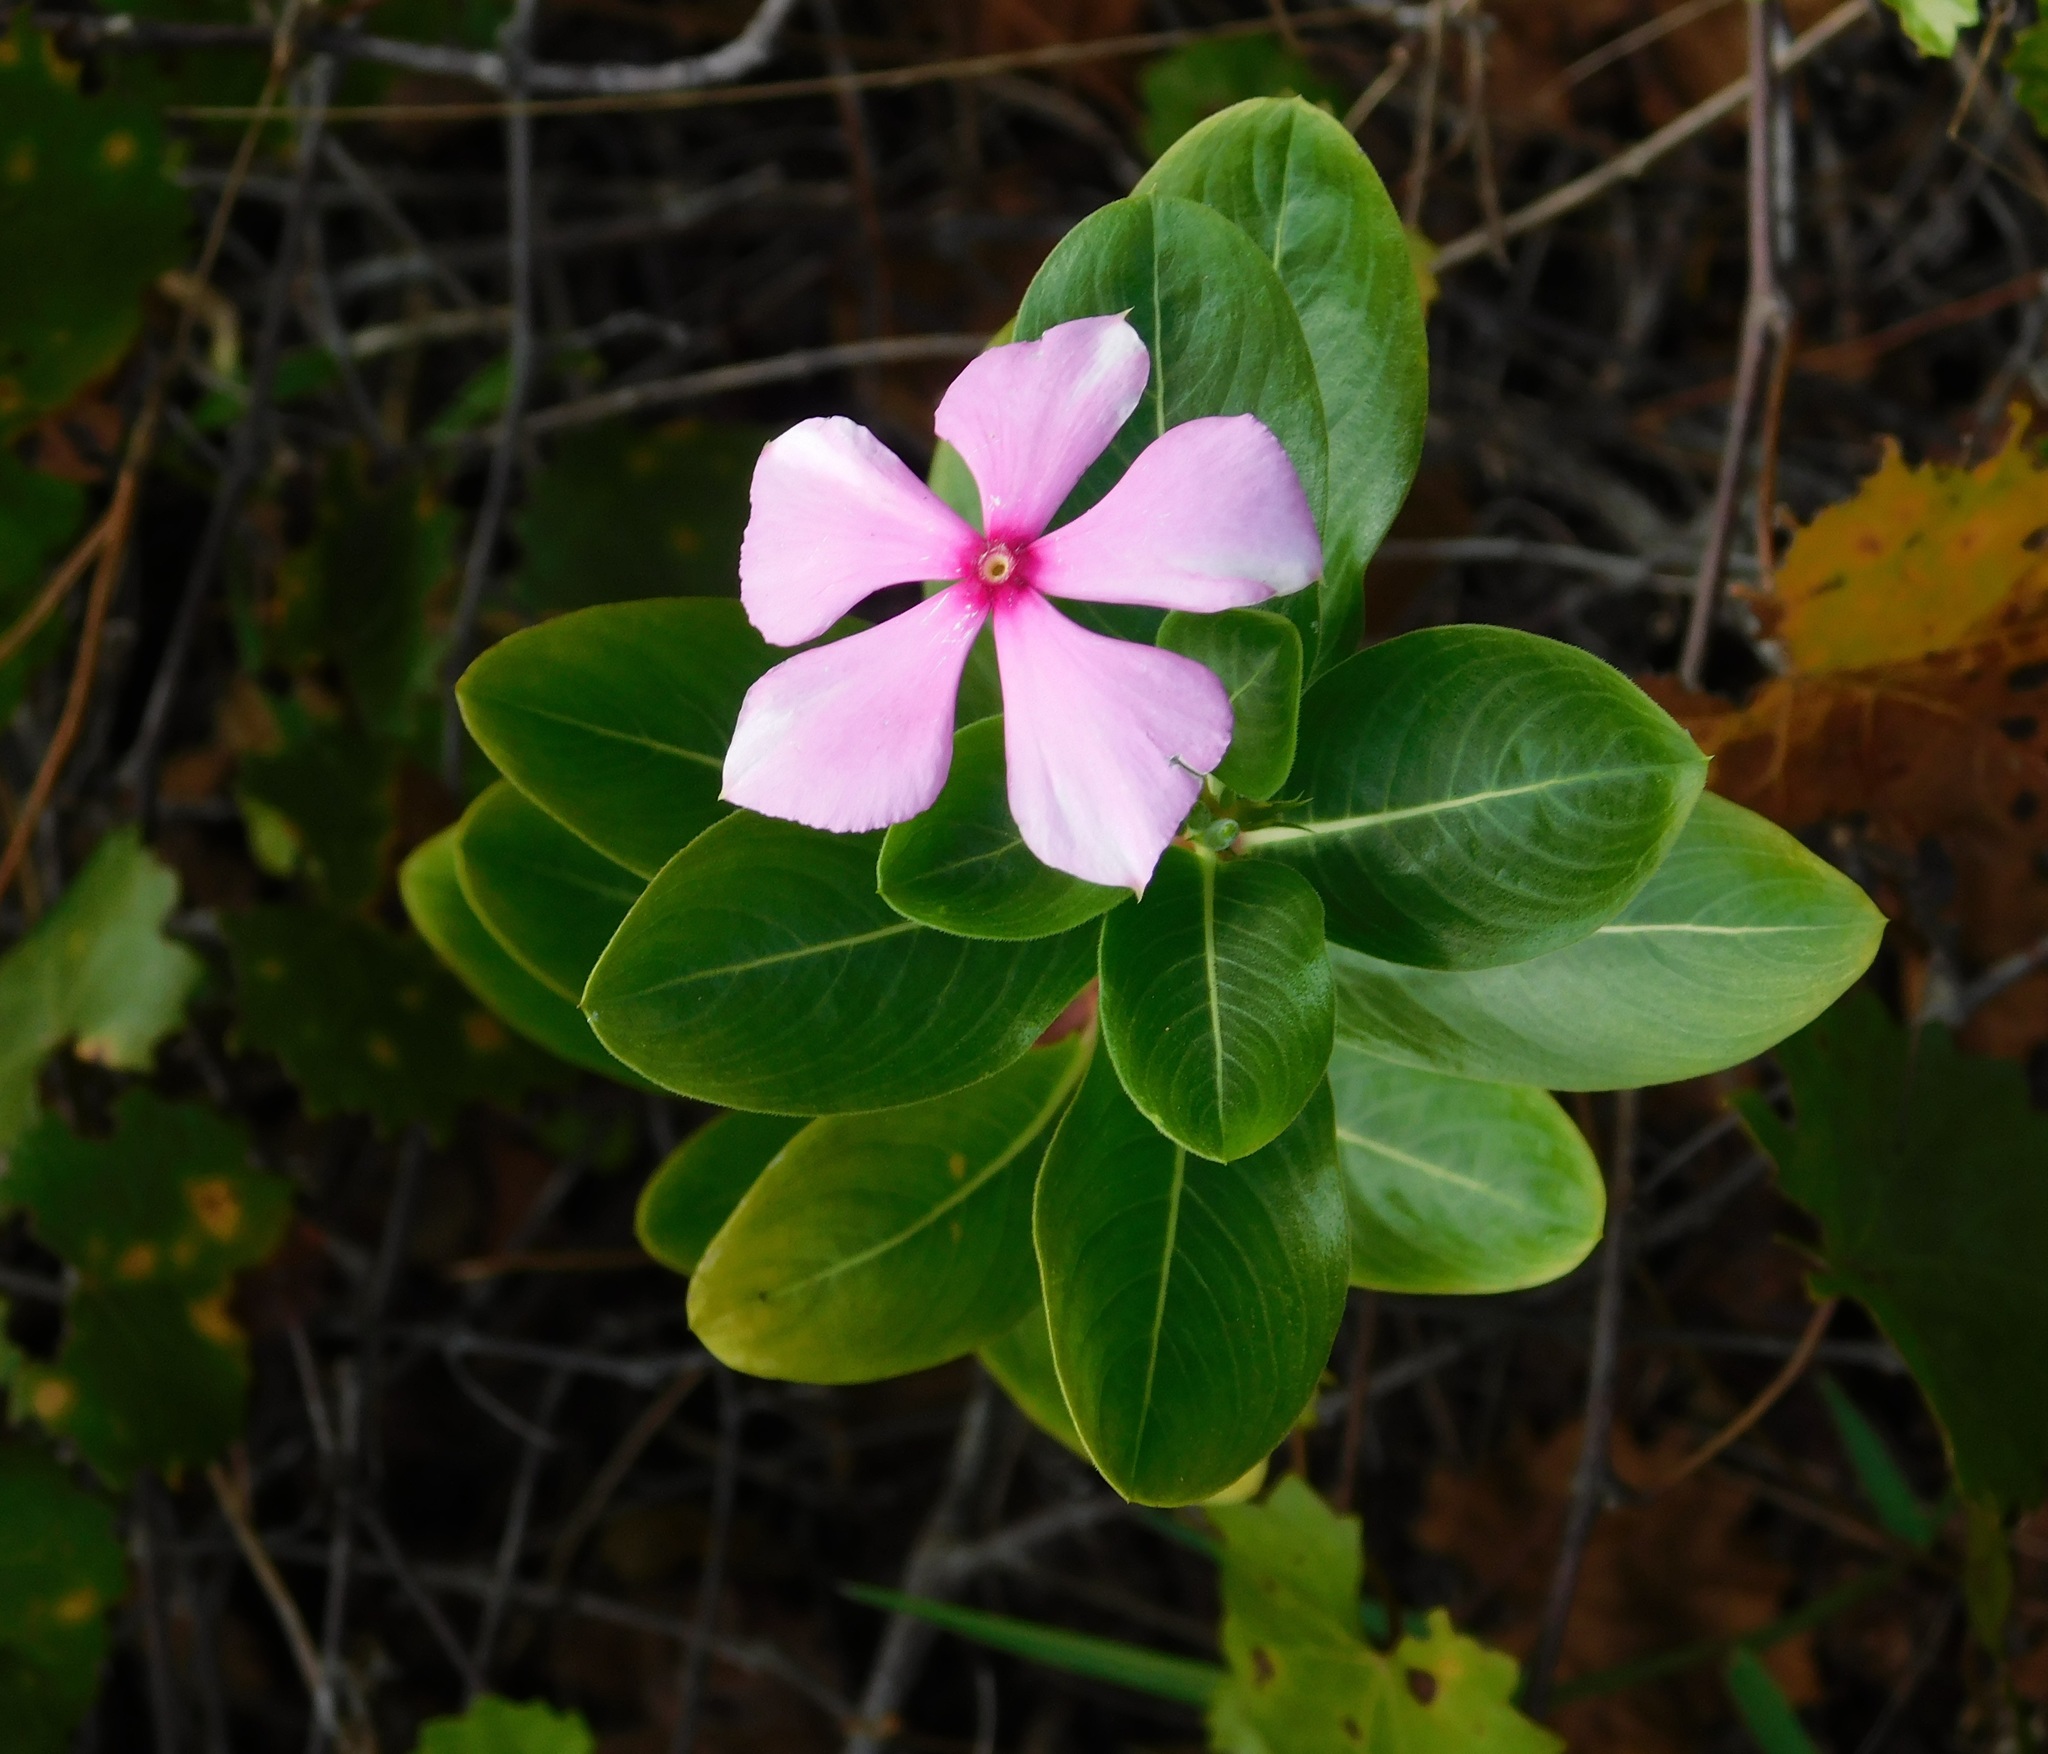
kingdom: Plantae
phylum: Tracheophyta
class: Magnoliopsida
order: Gentianales
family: Apocynaceae
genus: Catharanthus
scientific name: Catharanthus roseus
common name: Madagascar periwinkle
